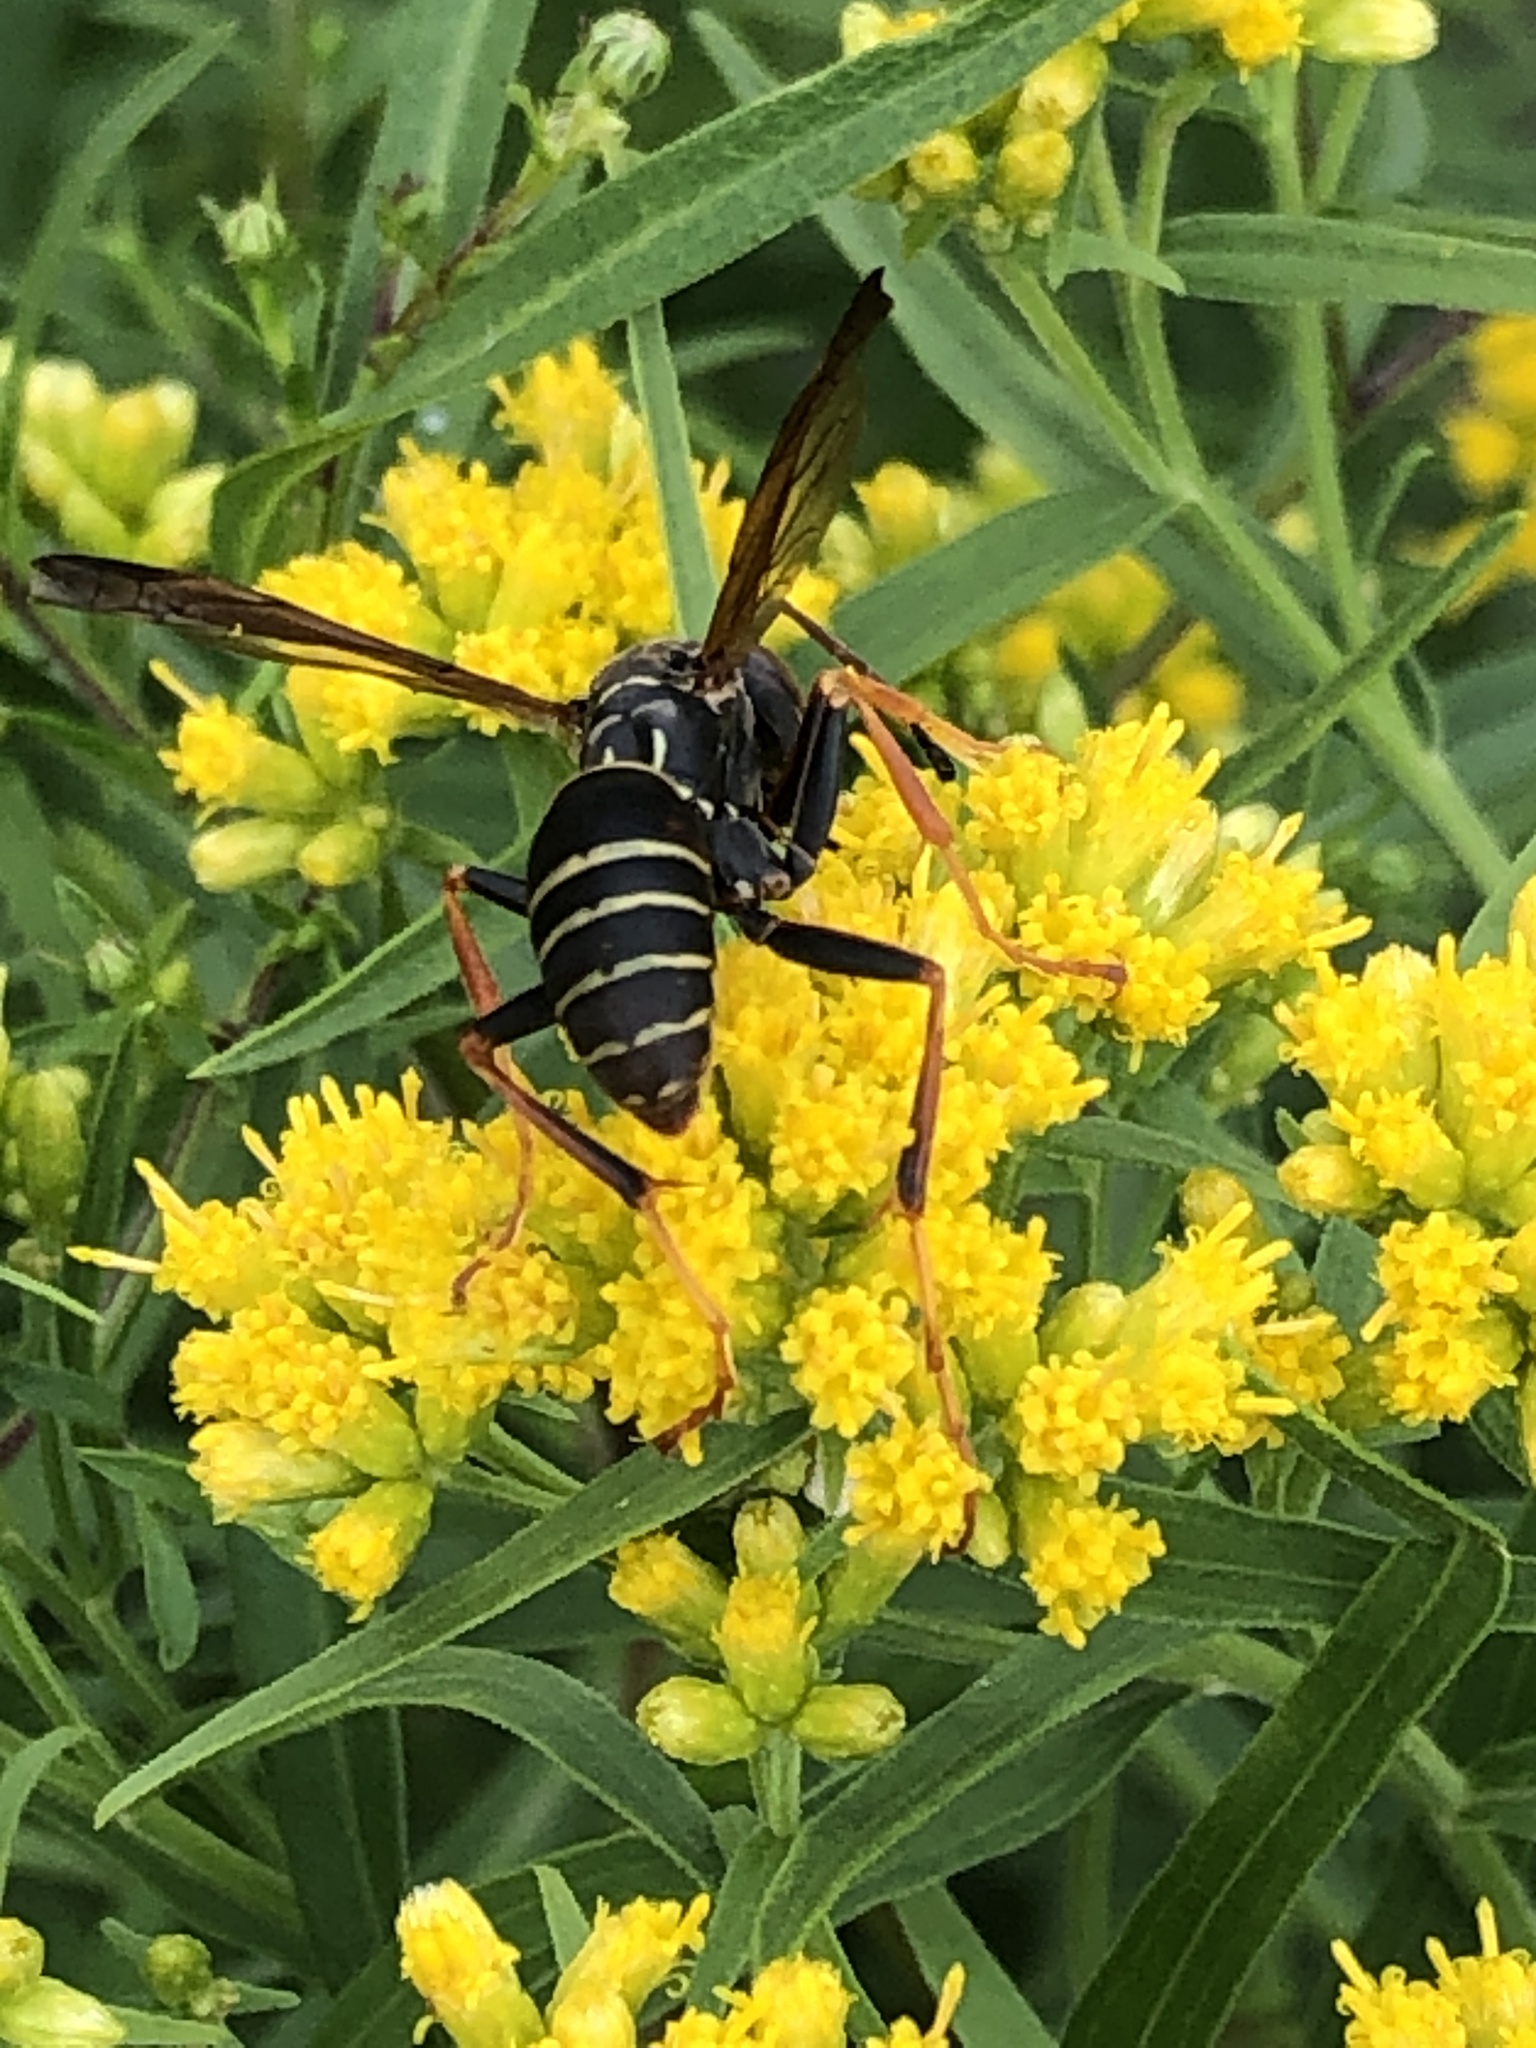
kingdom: Animalia
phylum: Arthropoda
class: Insecta
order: Hymenoptera
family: Eumenidae
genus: Polistes
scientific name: Polistes fuscatus
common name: Dark paper wasp
